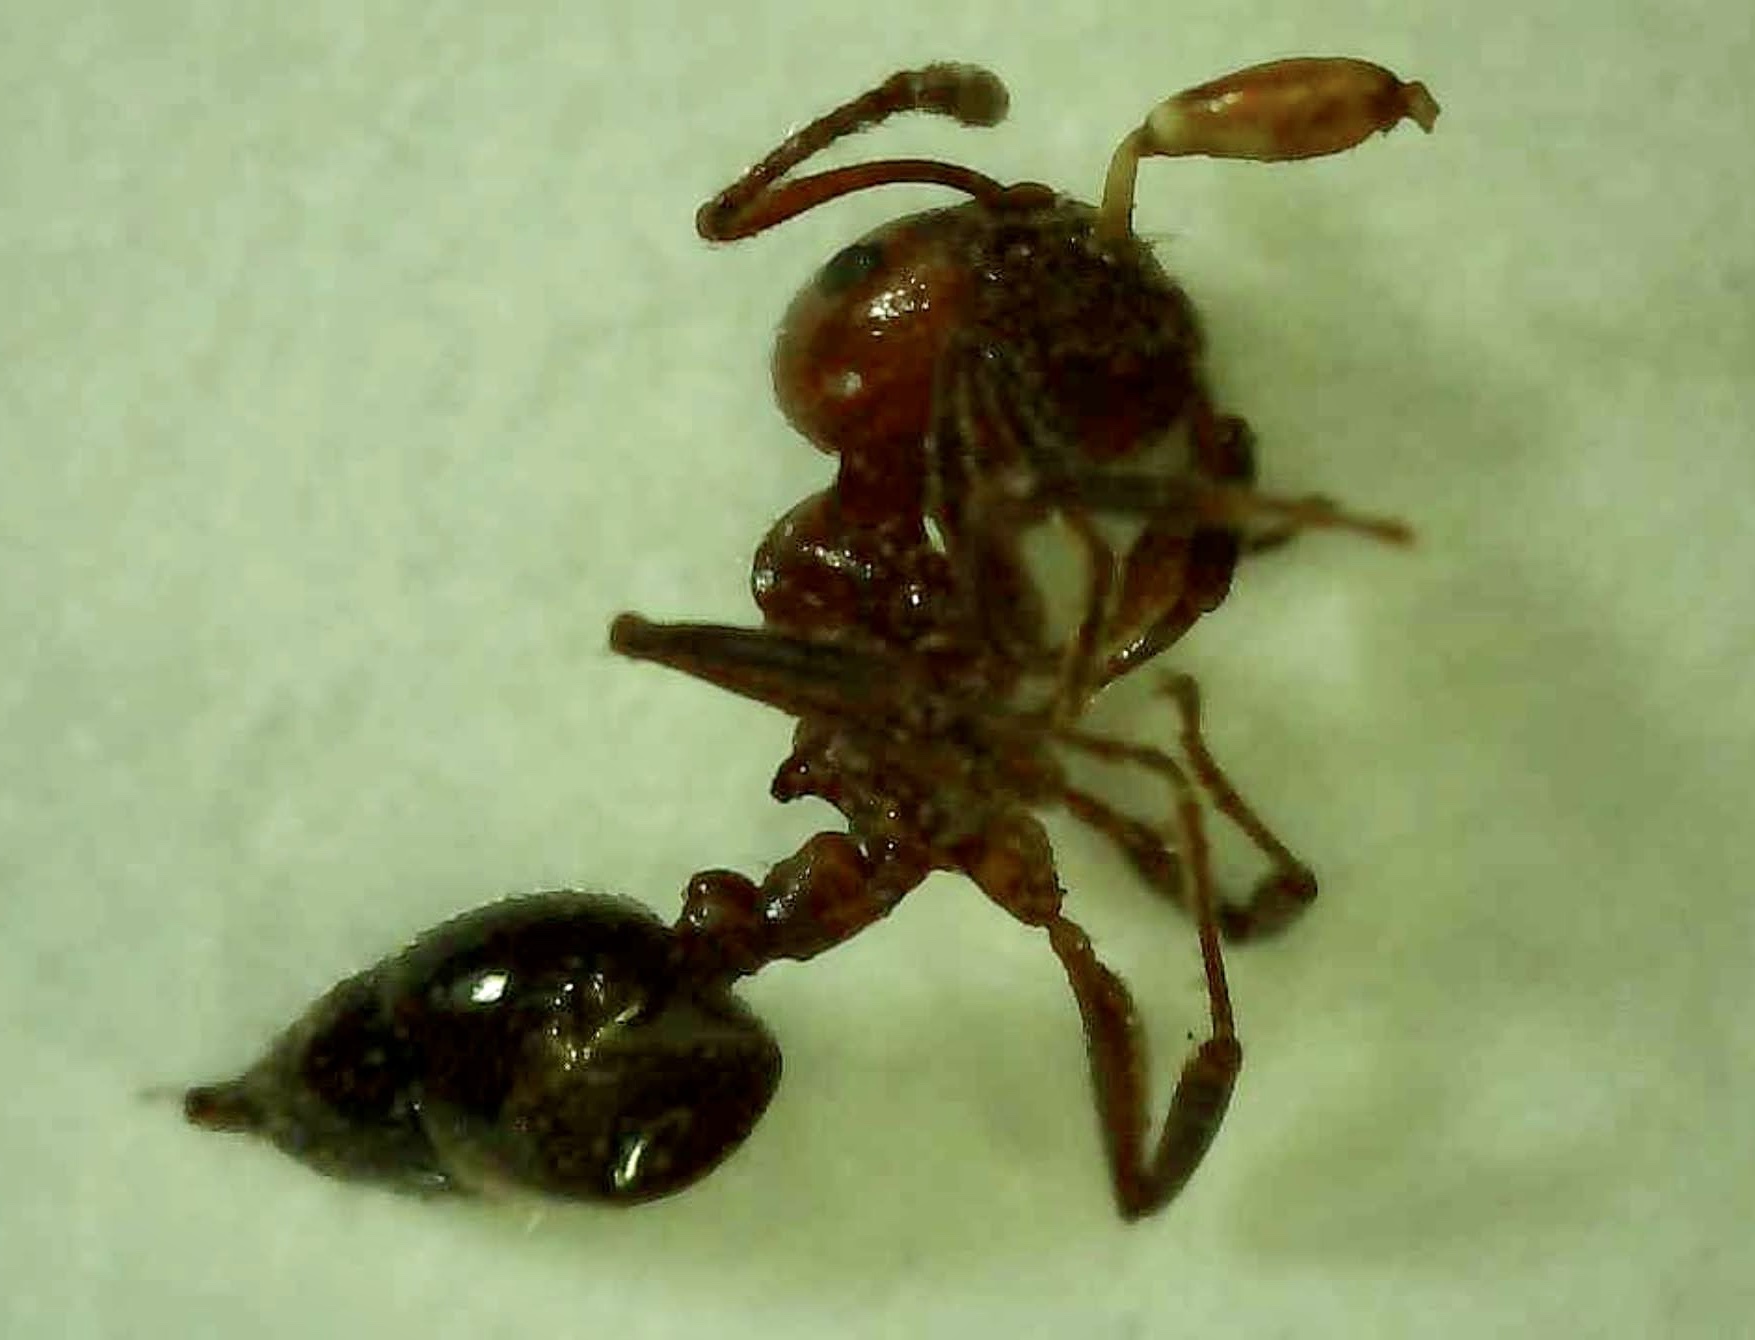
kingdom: Animalia
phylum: Arthropoda
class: Insecta
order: Hymenoptera
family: Formicidae
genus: Crematogaster
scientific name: Crematogaster laeviuscula
